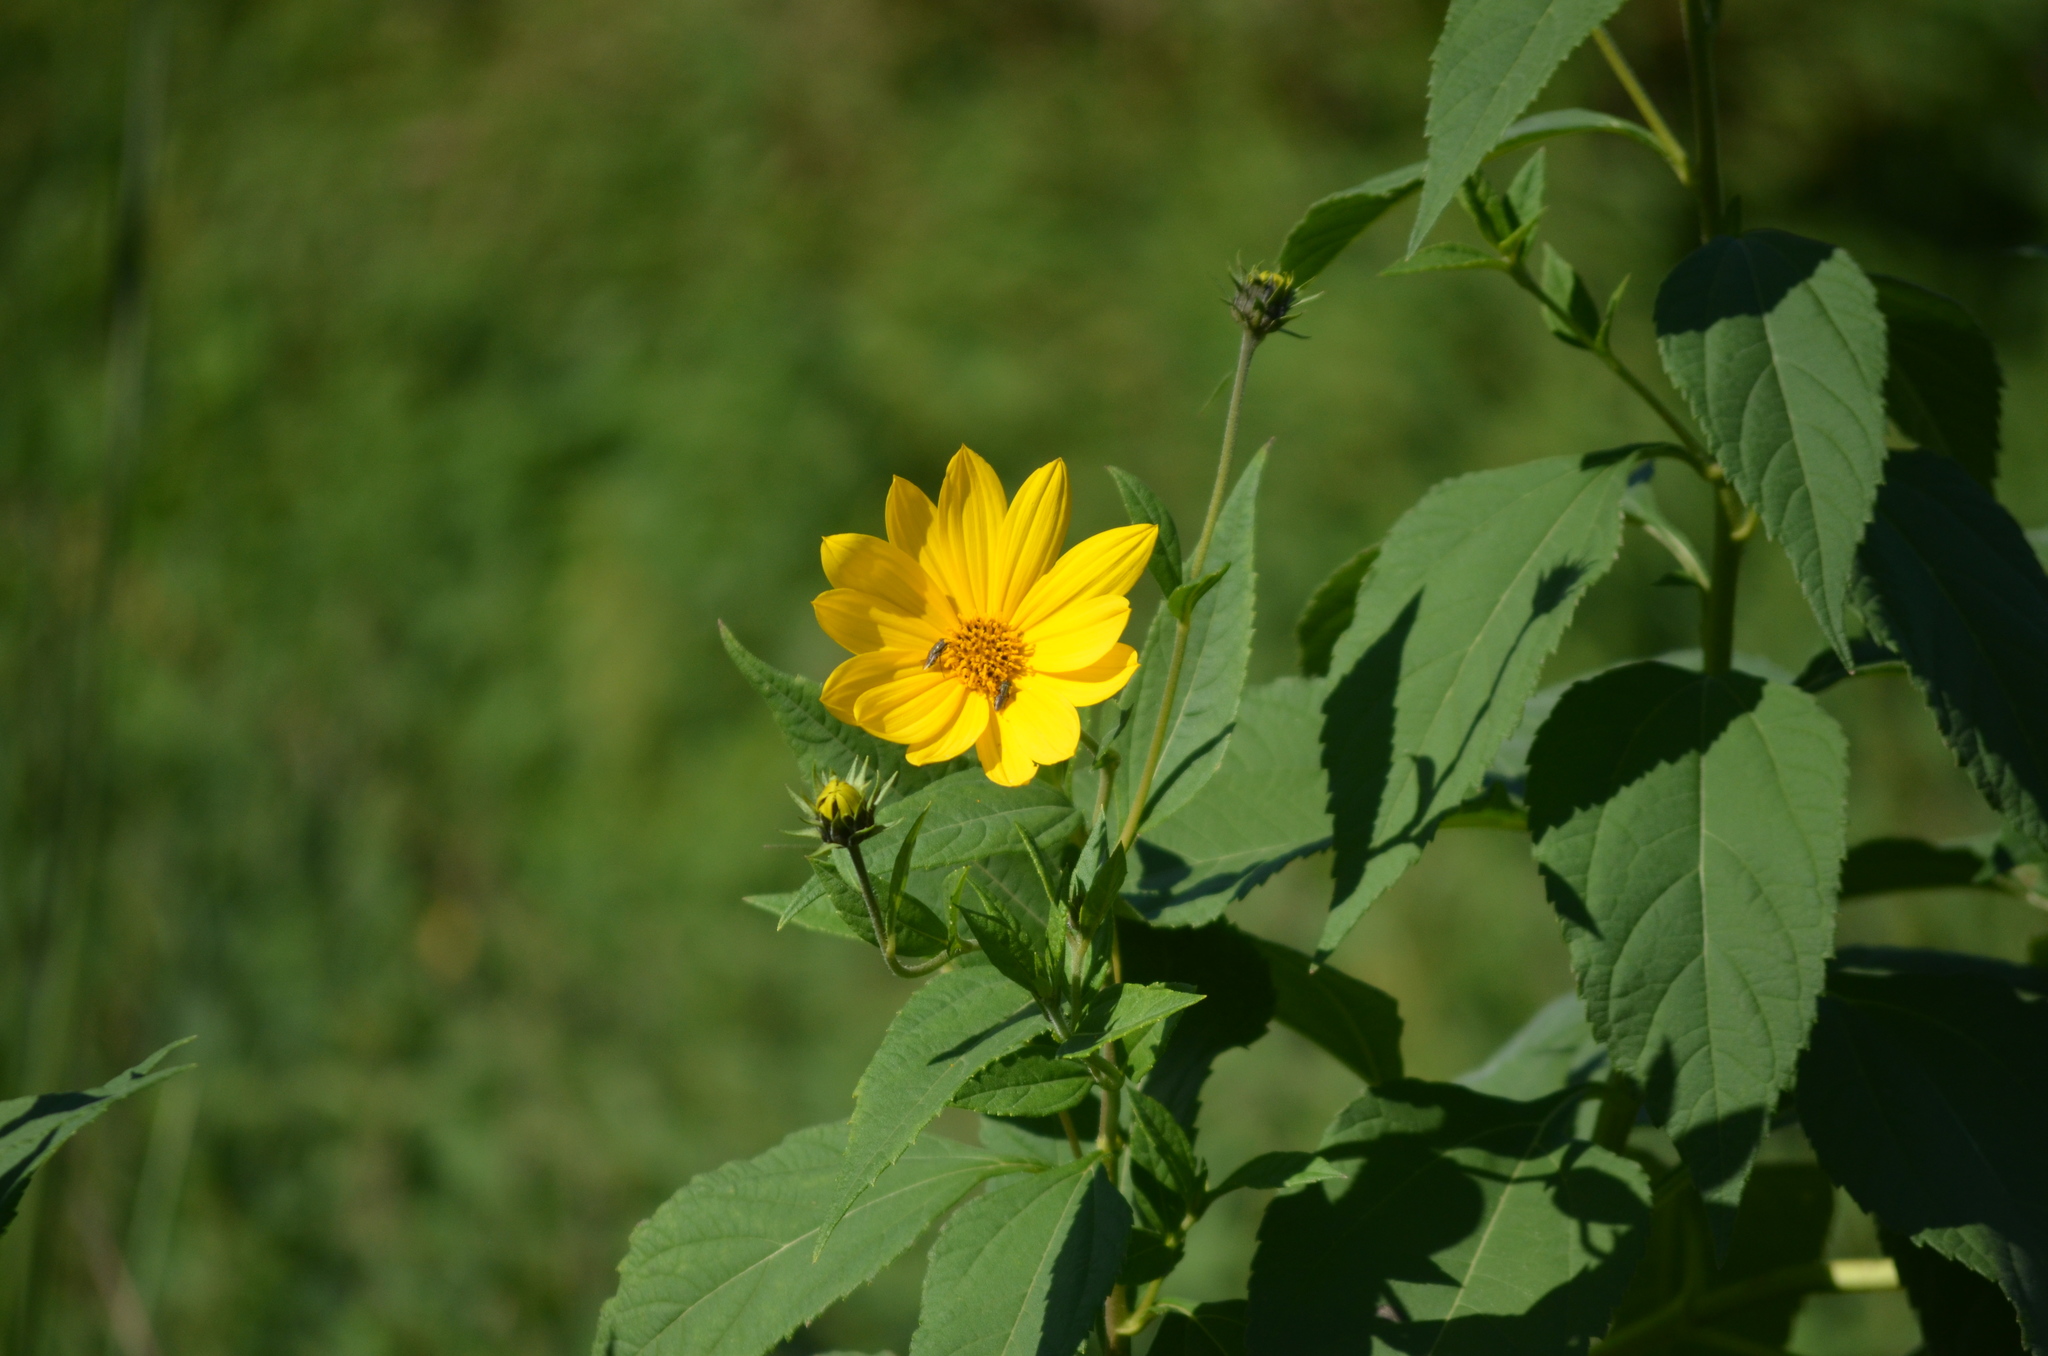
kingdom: Plantae
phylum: Tracheophyta
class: Magnoliopsida
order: Asterales
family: Asteraceae
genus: Helianthus
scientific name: Helianthus tuberosus
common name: Jerusalem artichoke
